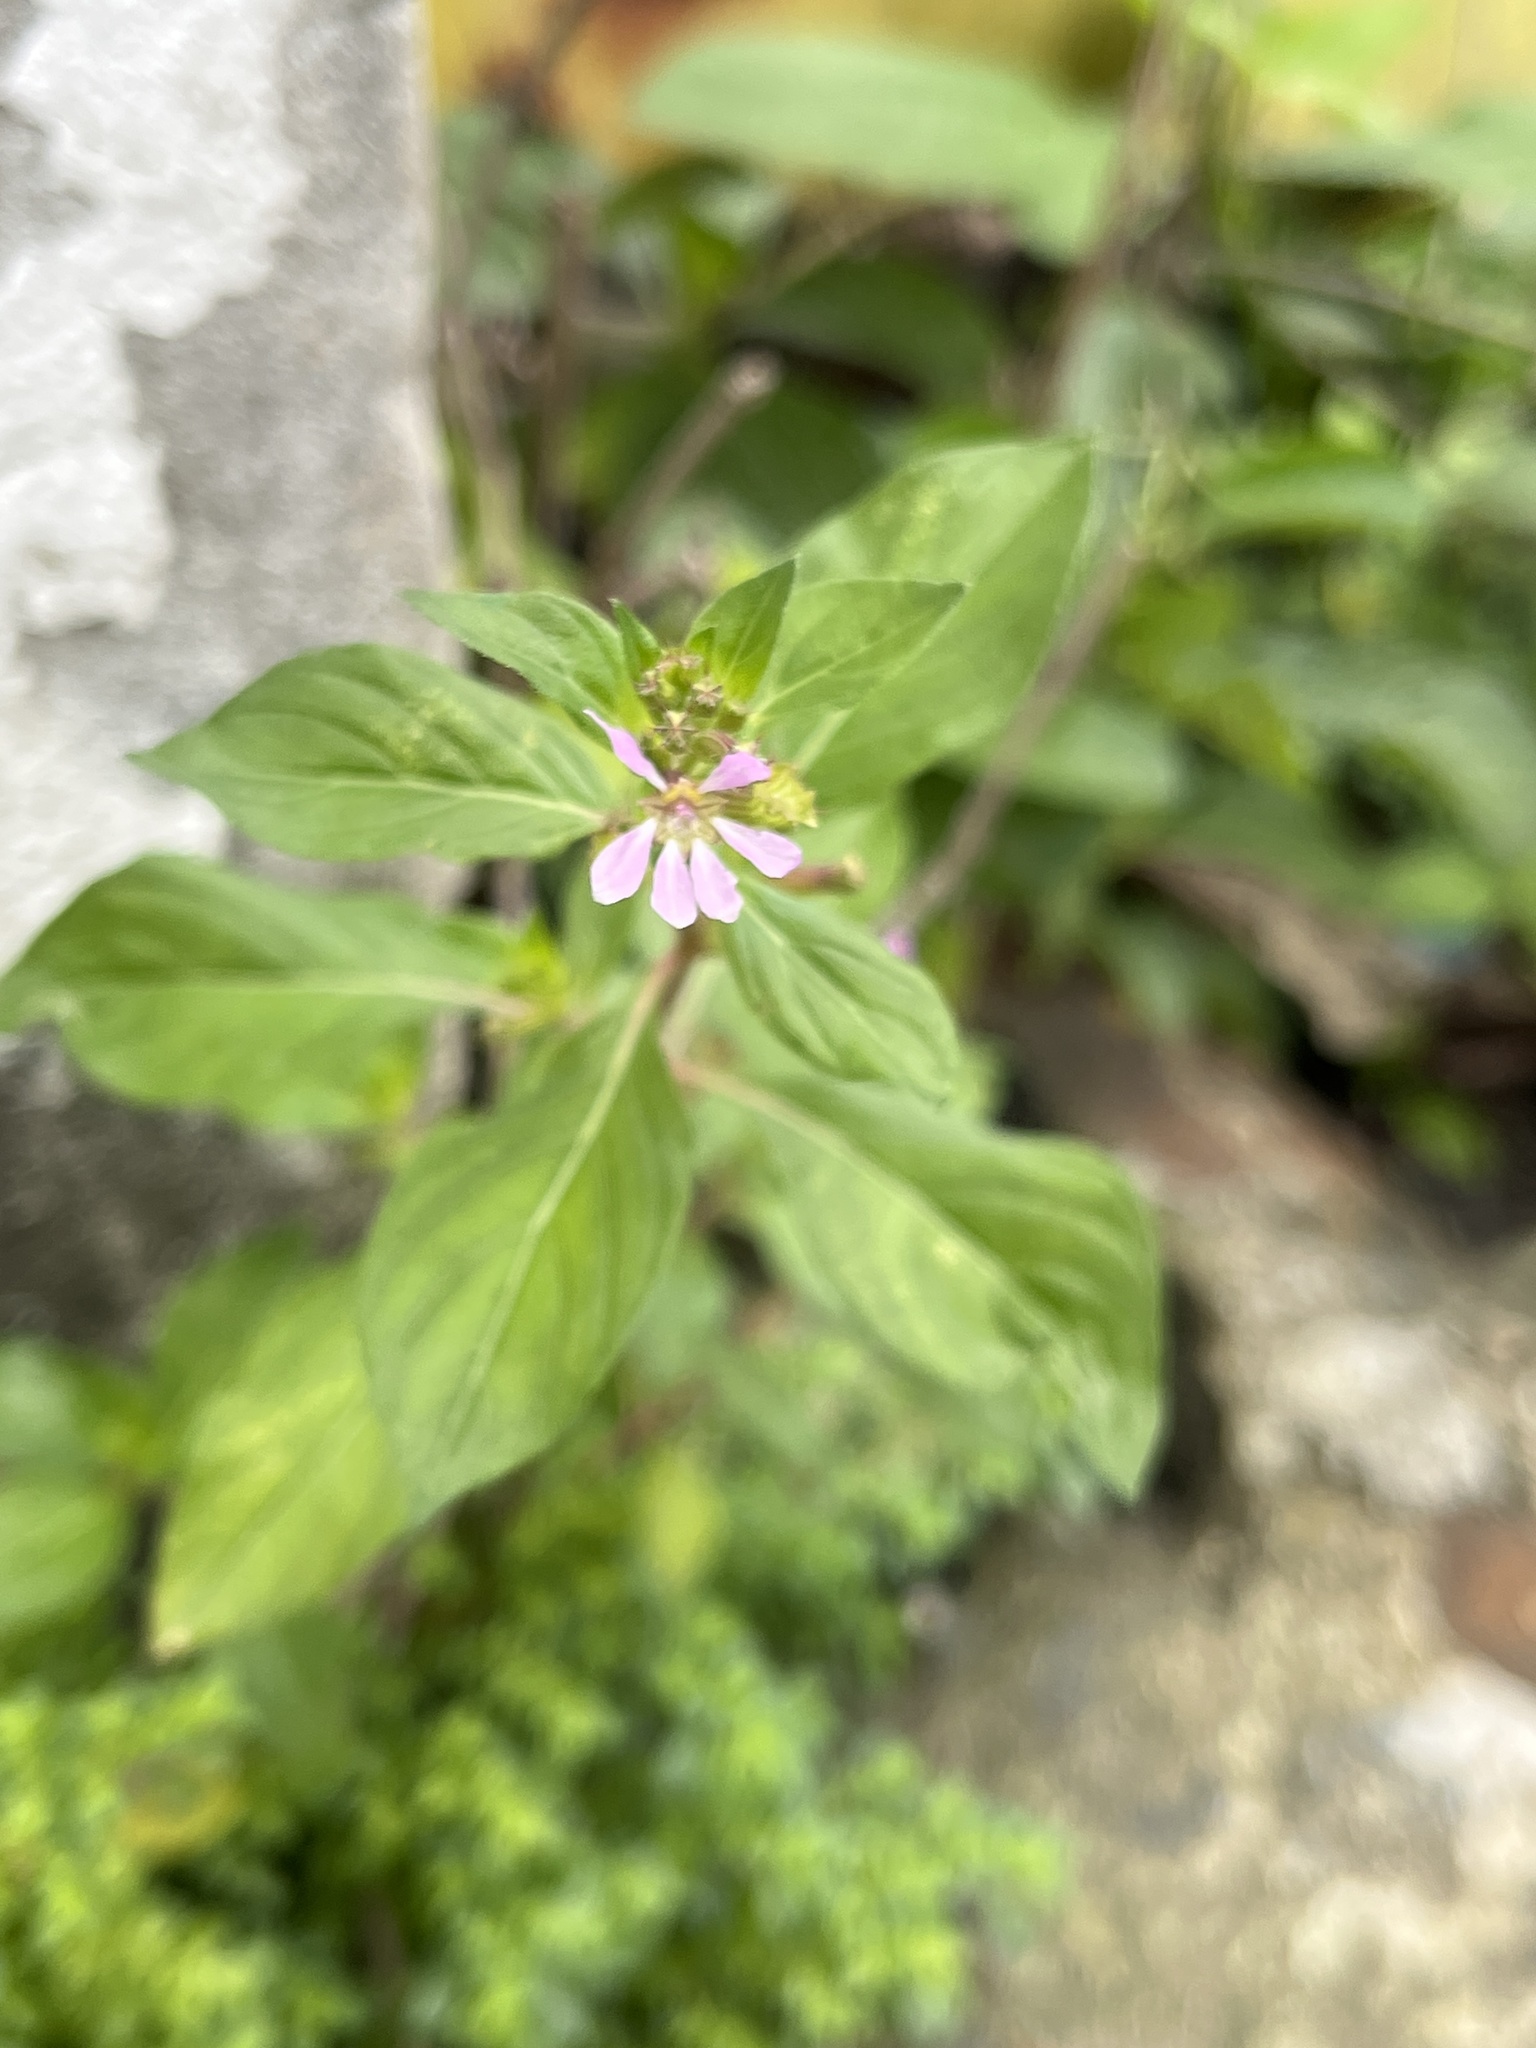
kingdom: Plantae
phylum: Tracheophyta
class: Magnoliopsida
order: Myrtales
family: Lythraceae
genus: Cuphea
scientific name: Cuphea strigulosa
